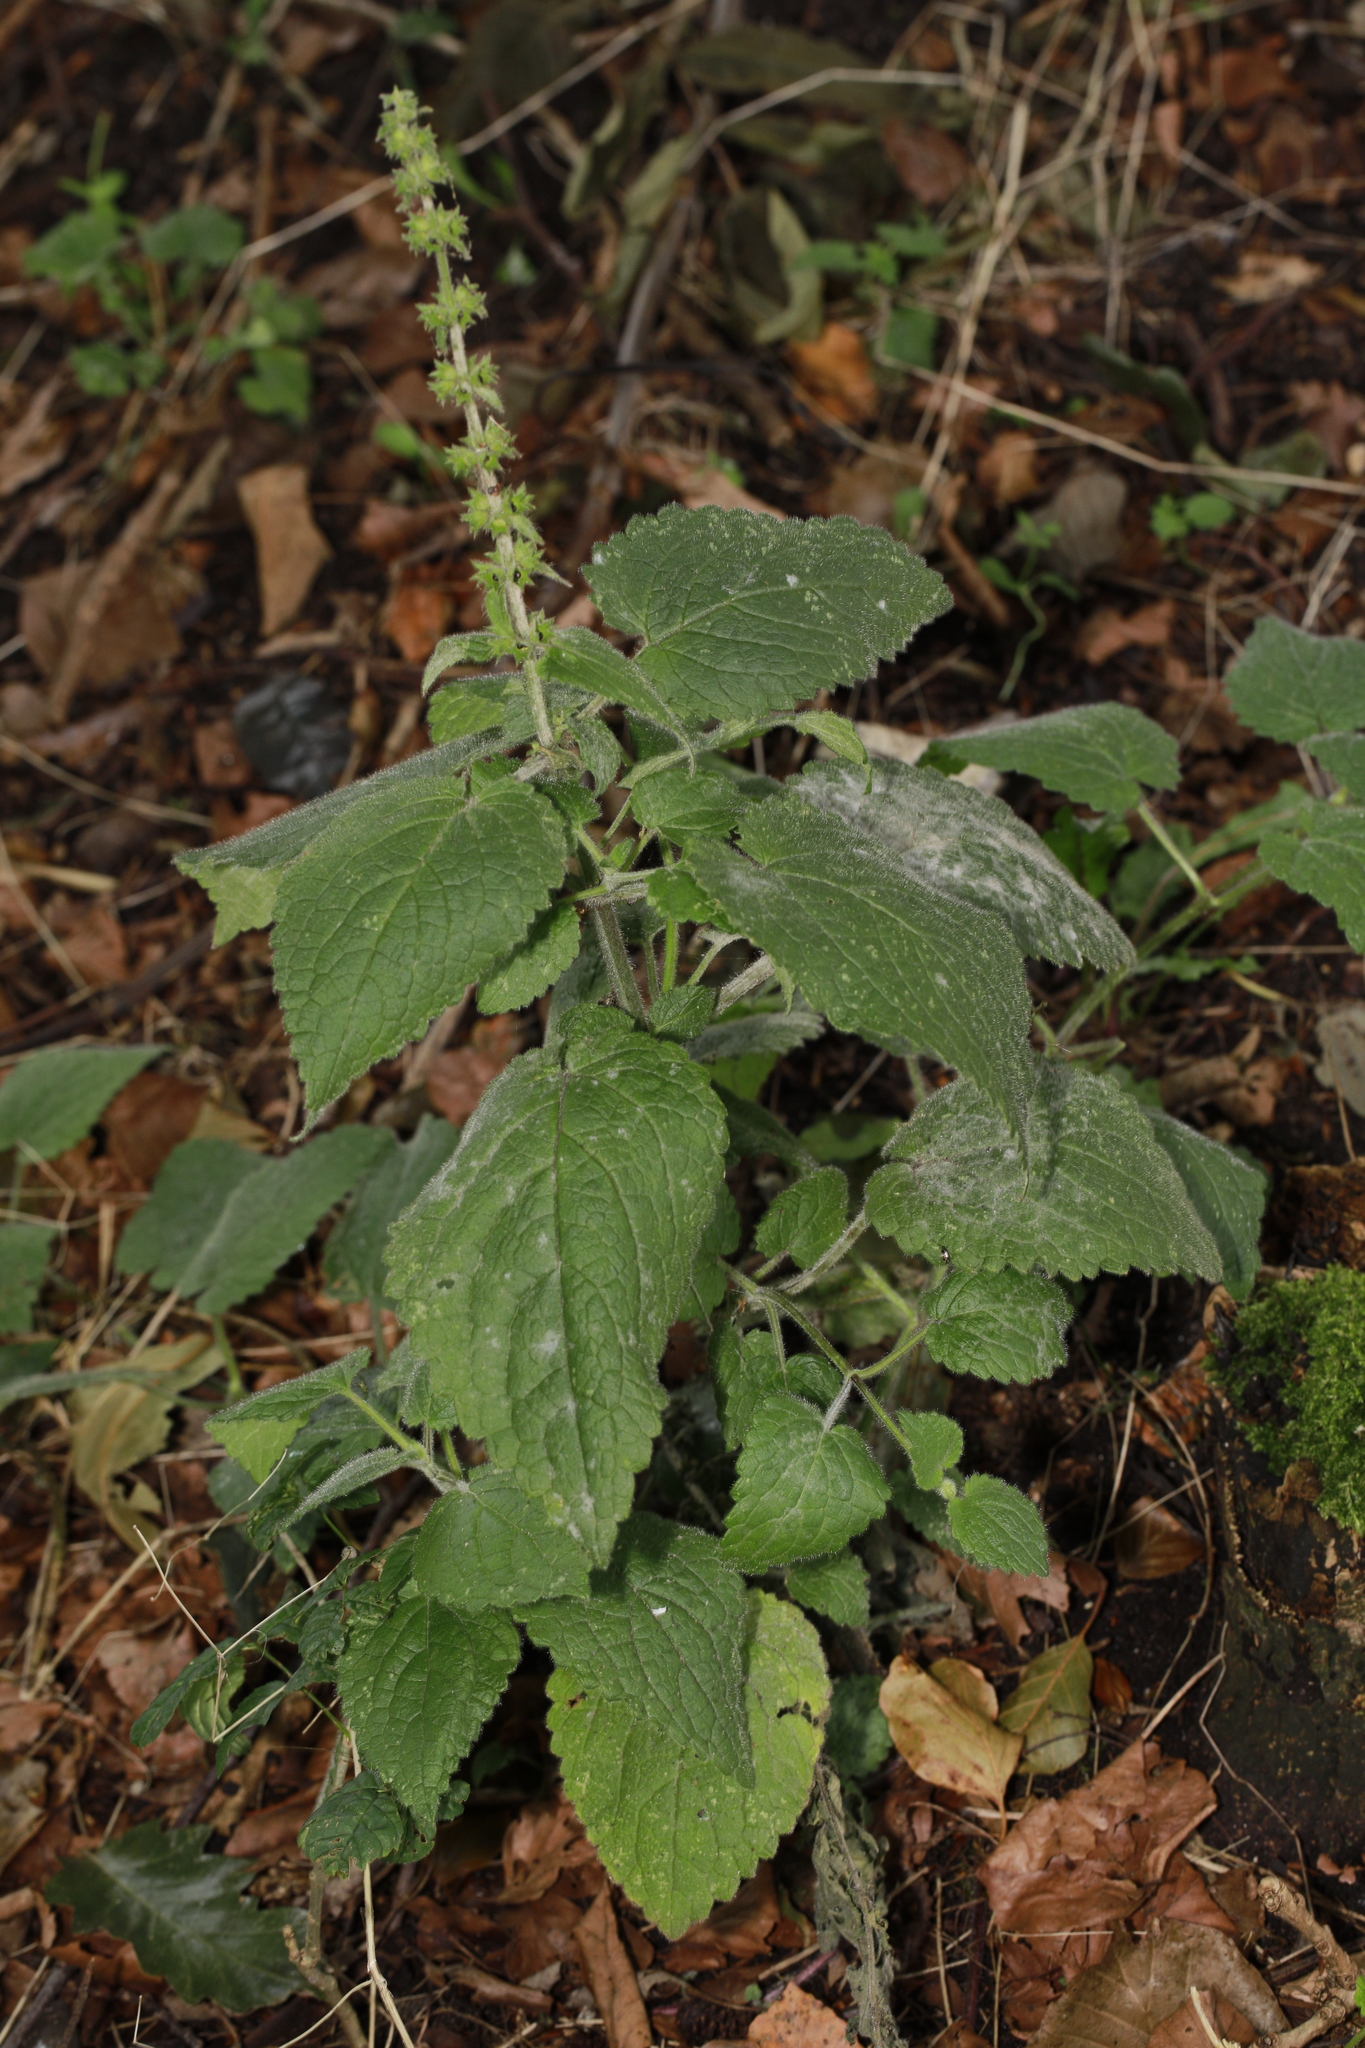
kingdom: Fungi
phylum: Ascomycota
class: Leotiomycetes
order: Helotiales
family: Erysiphaceae
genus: Neoerysiphe
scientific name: Neoerysiphe galeopsidis
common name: Mint mildew
